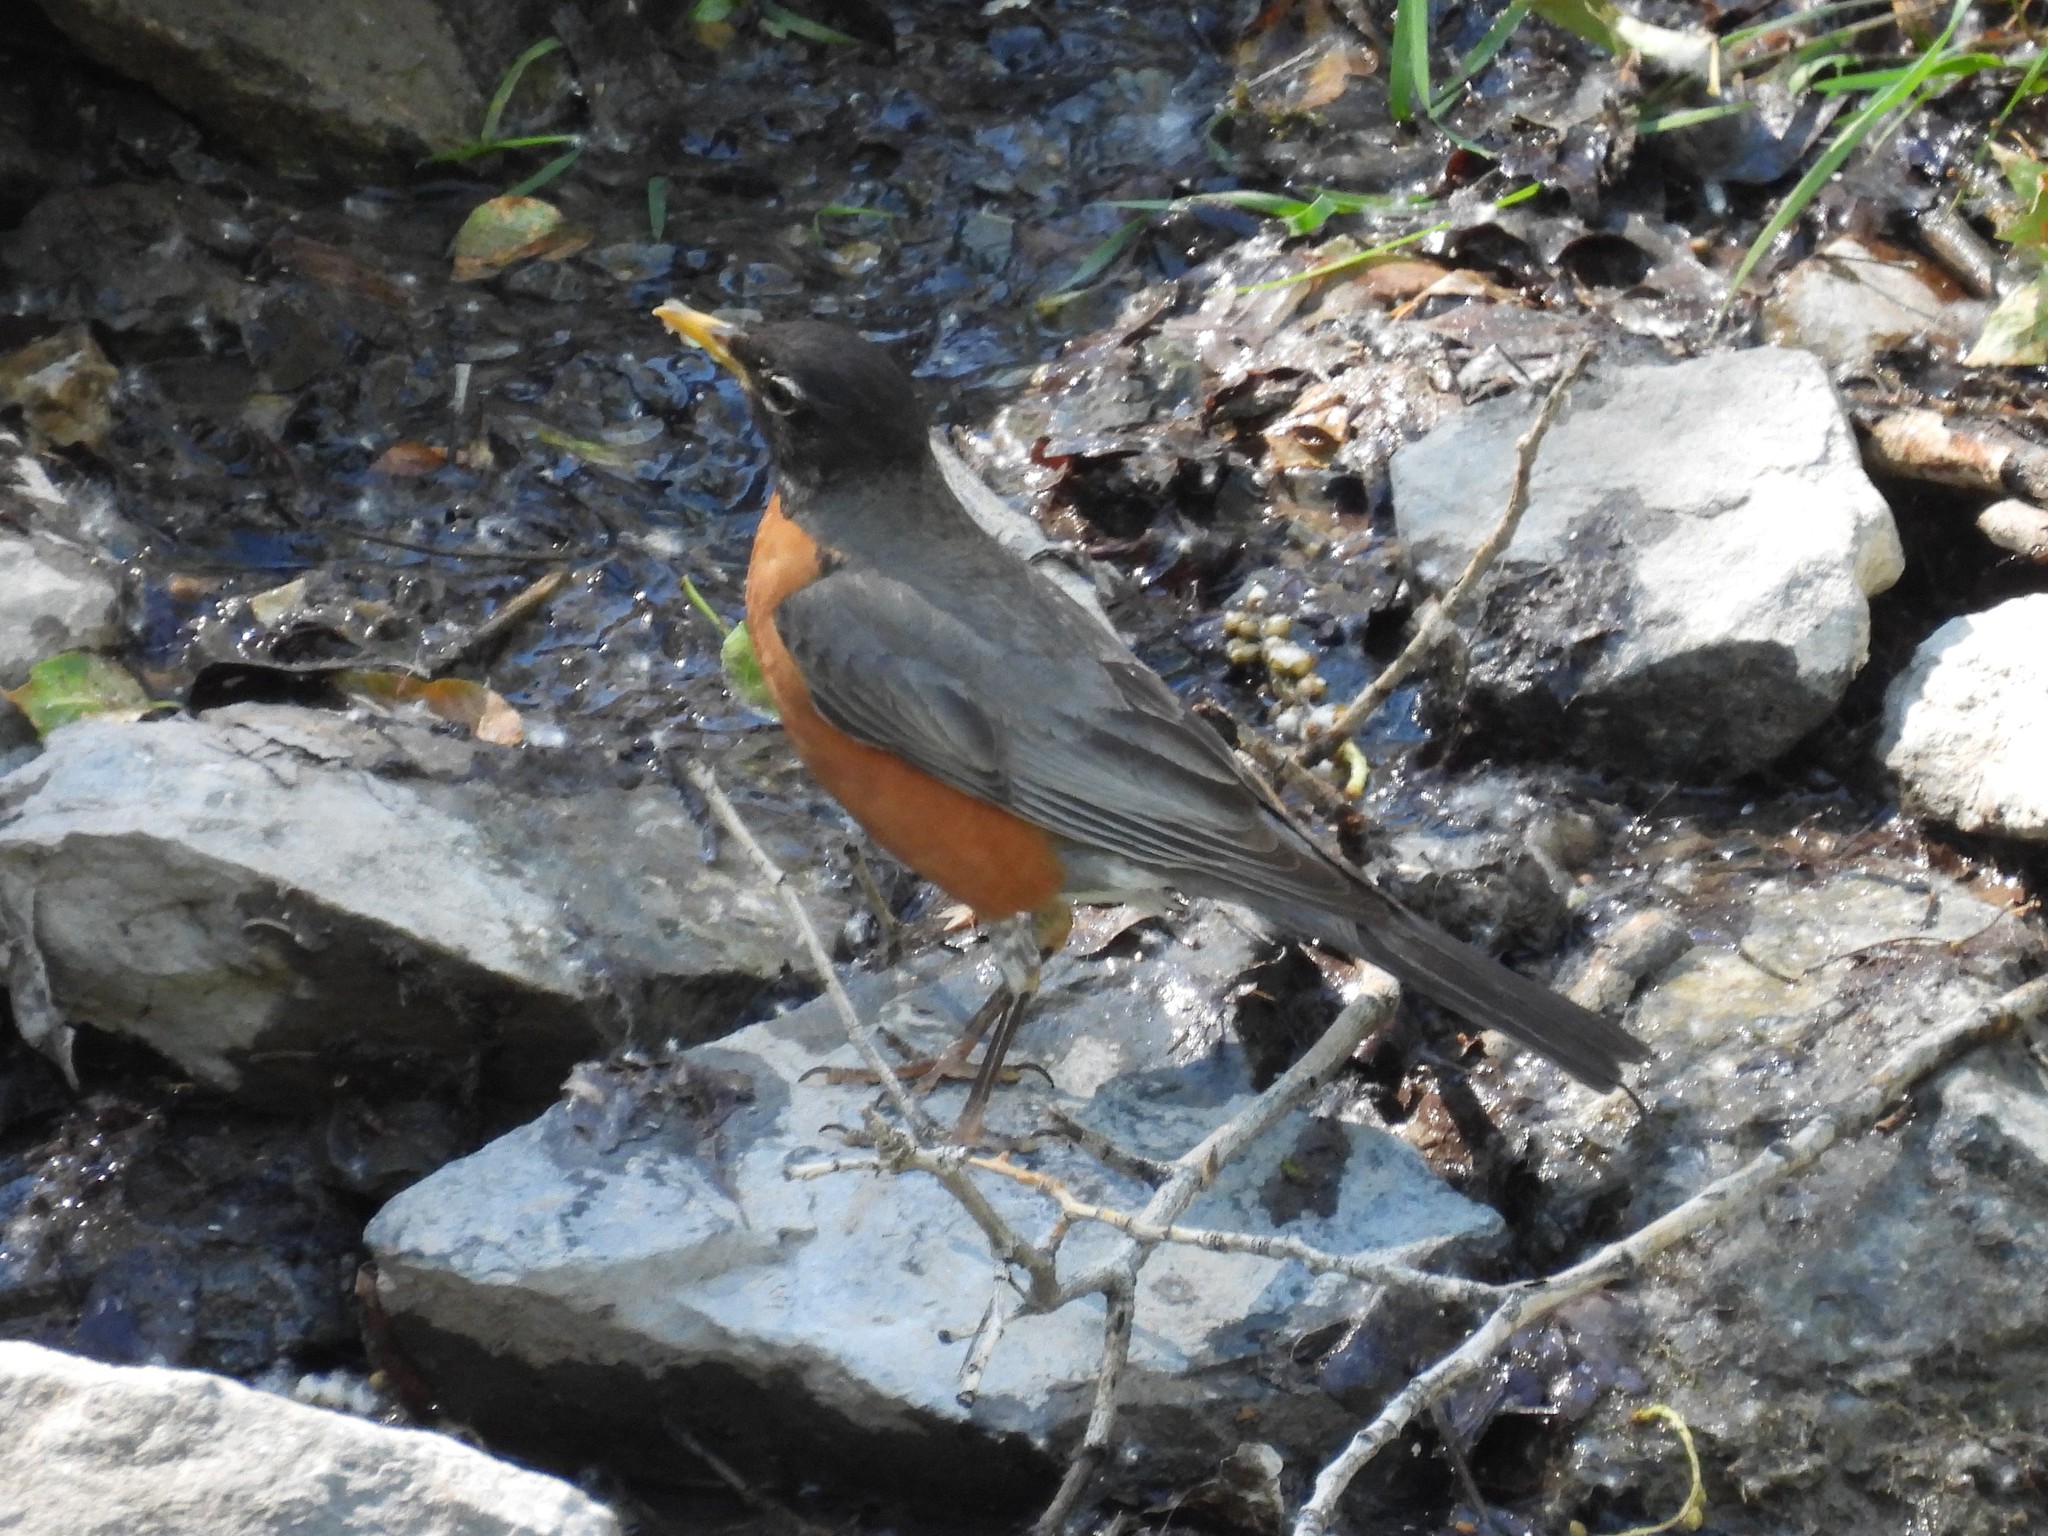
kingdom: Animalia
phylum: Chordata
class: Aves
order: Passeriformes
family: Turdidae
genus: Turdus
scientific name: Turdus migratorius
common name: American robin
